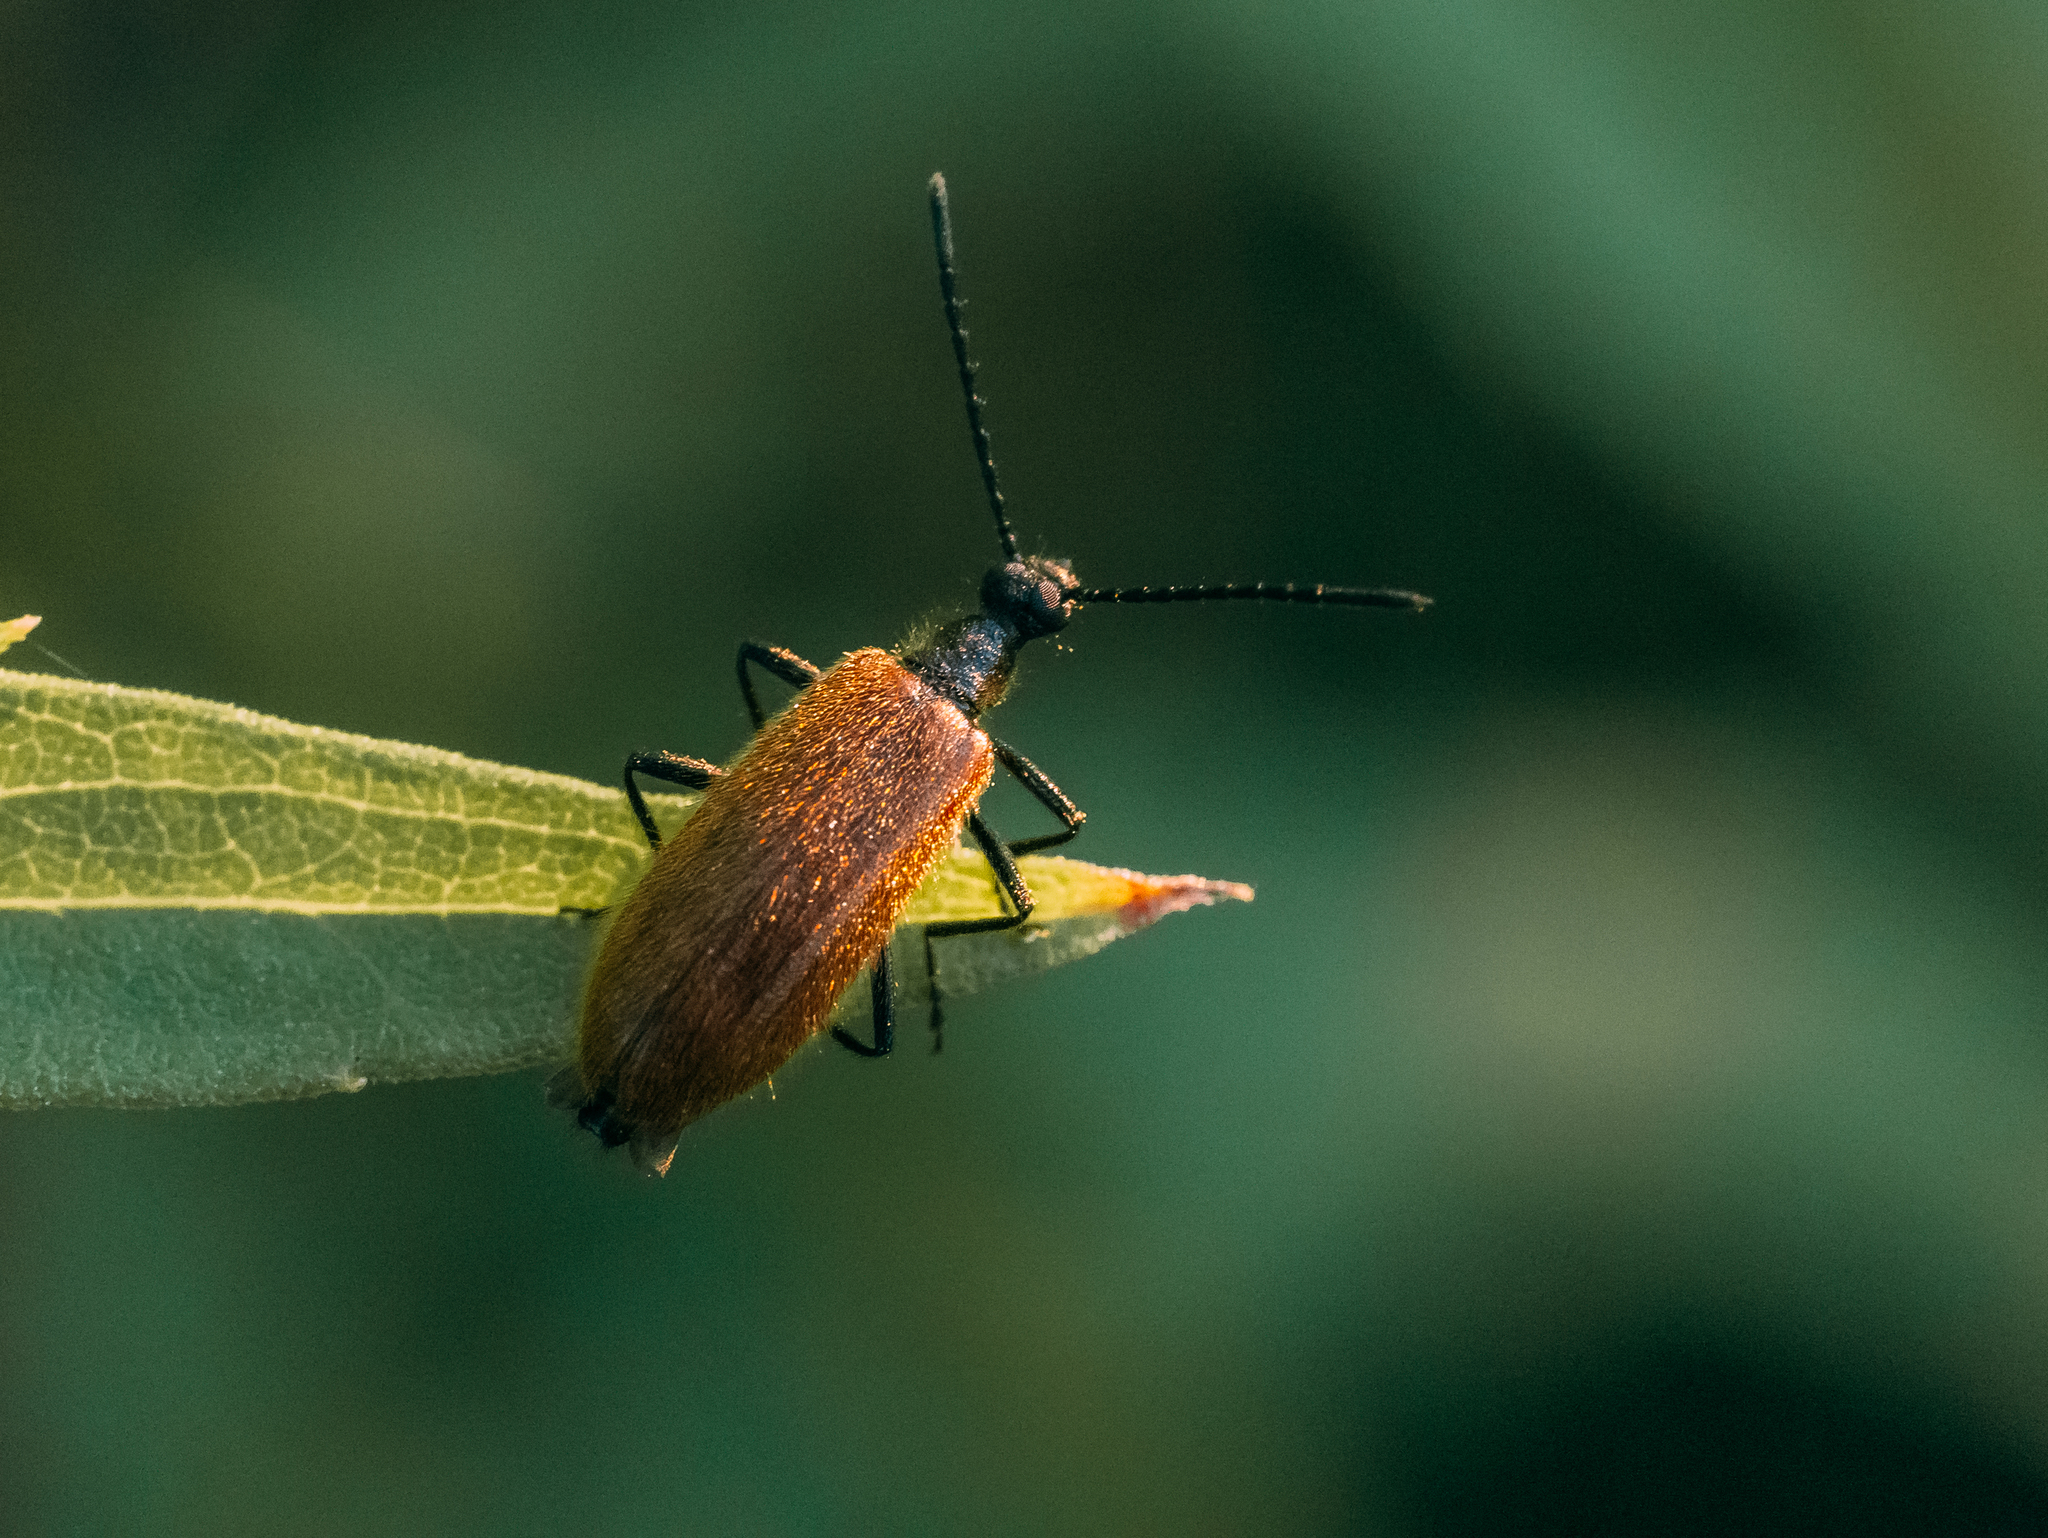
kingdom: Animalia
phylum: Arthropoda
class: Insecta
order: Coleoptera
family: Tenebrionidae
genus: Lagria
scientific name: Lagria hirta
